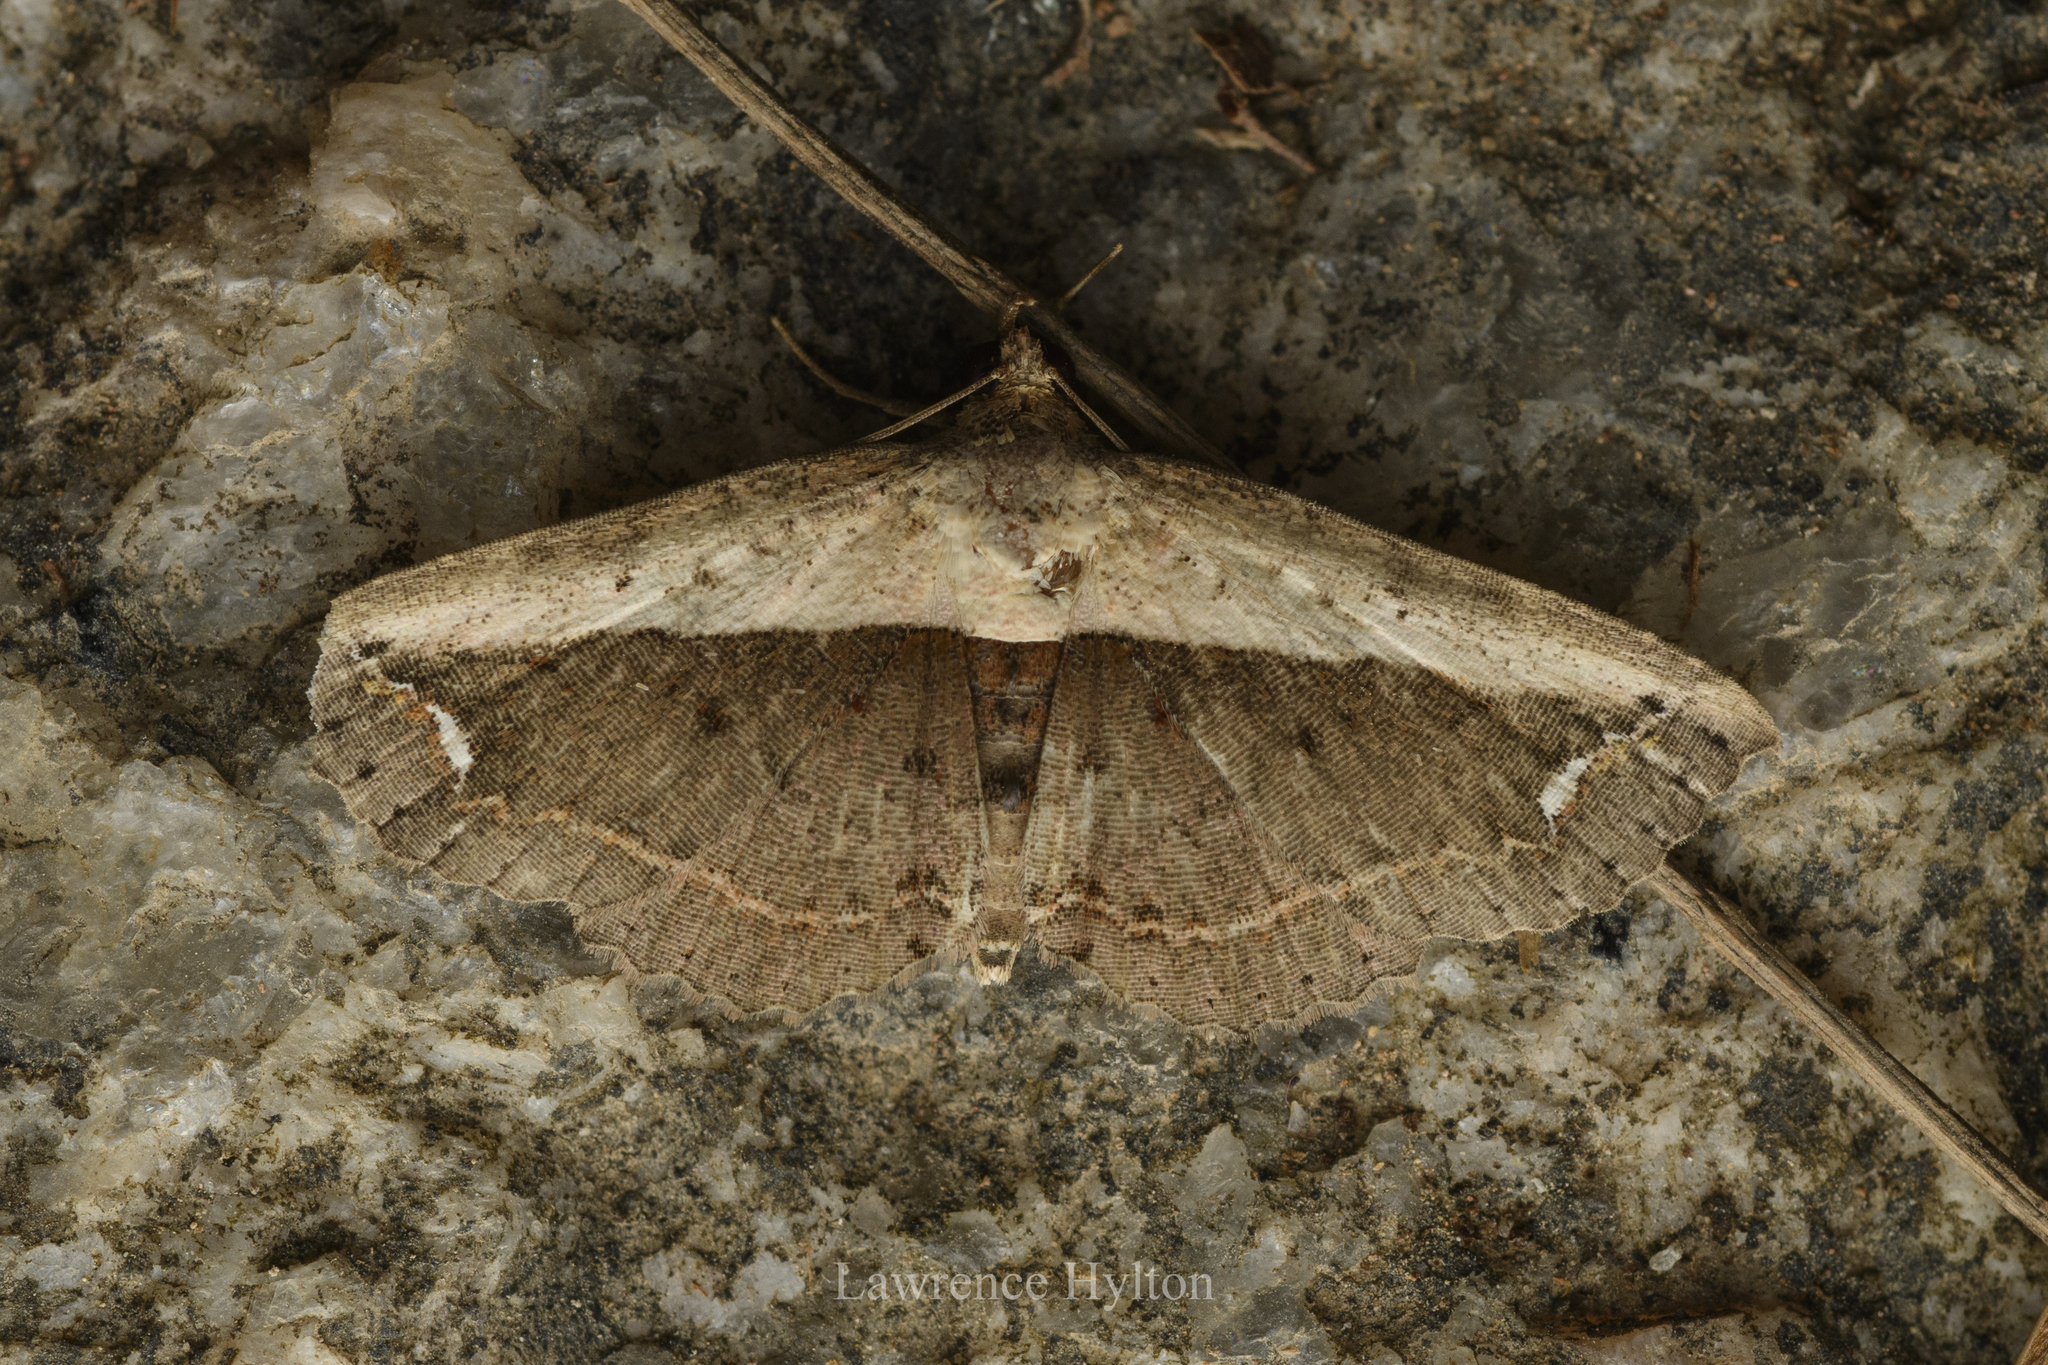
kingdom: Animalia
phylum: Arthropoda
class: Insecta
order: Lepidoptera
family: Noctuidae
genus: Eugnathia
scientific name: Eugnathia lunifera
